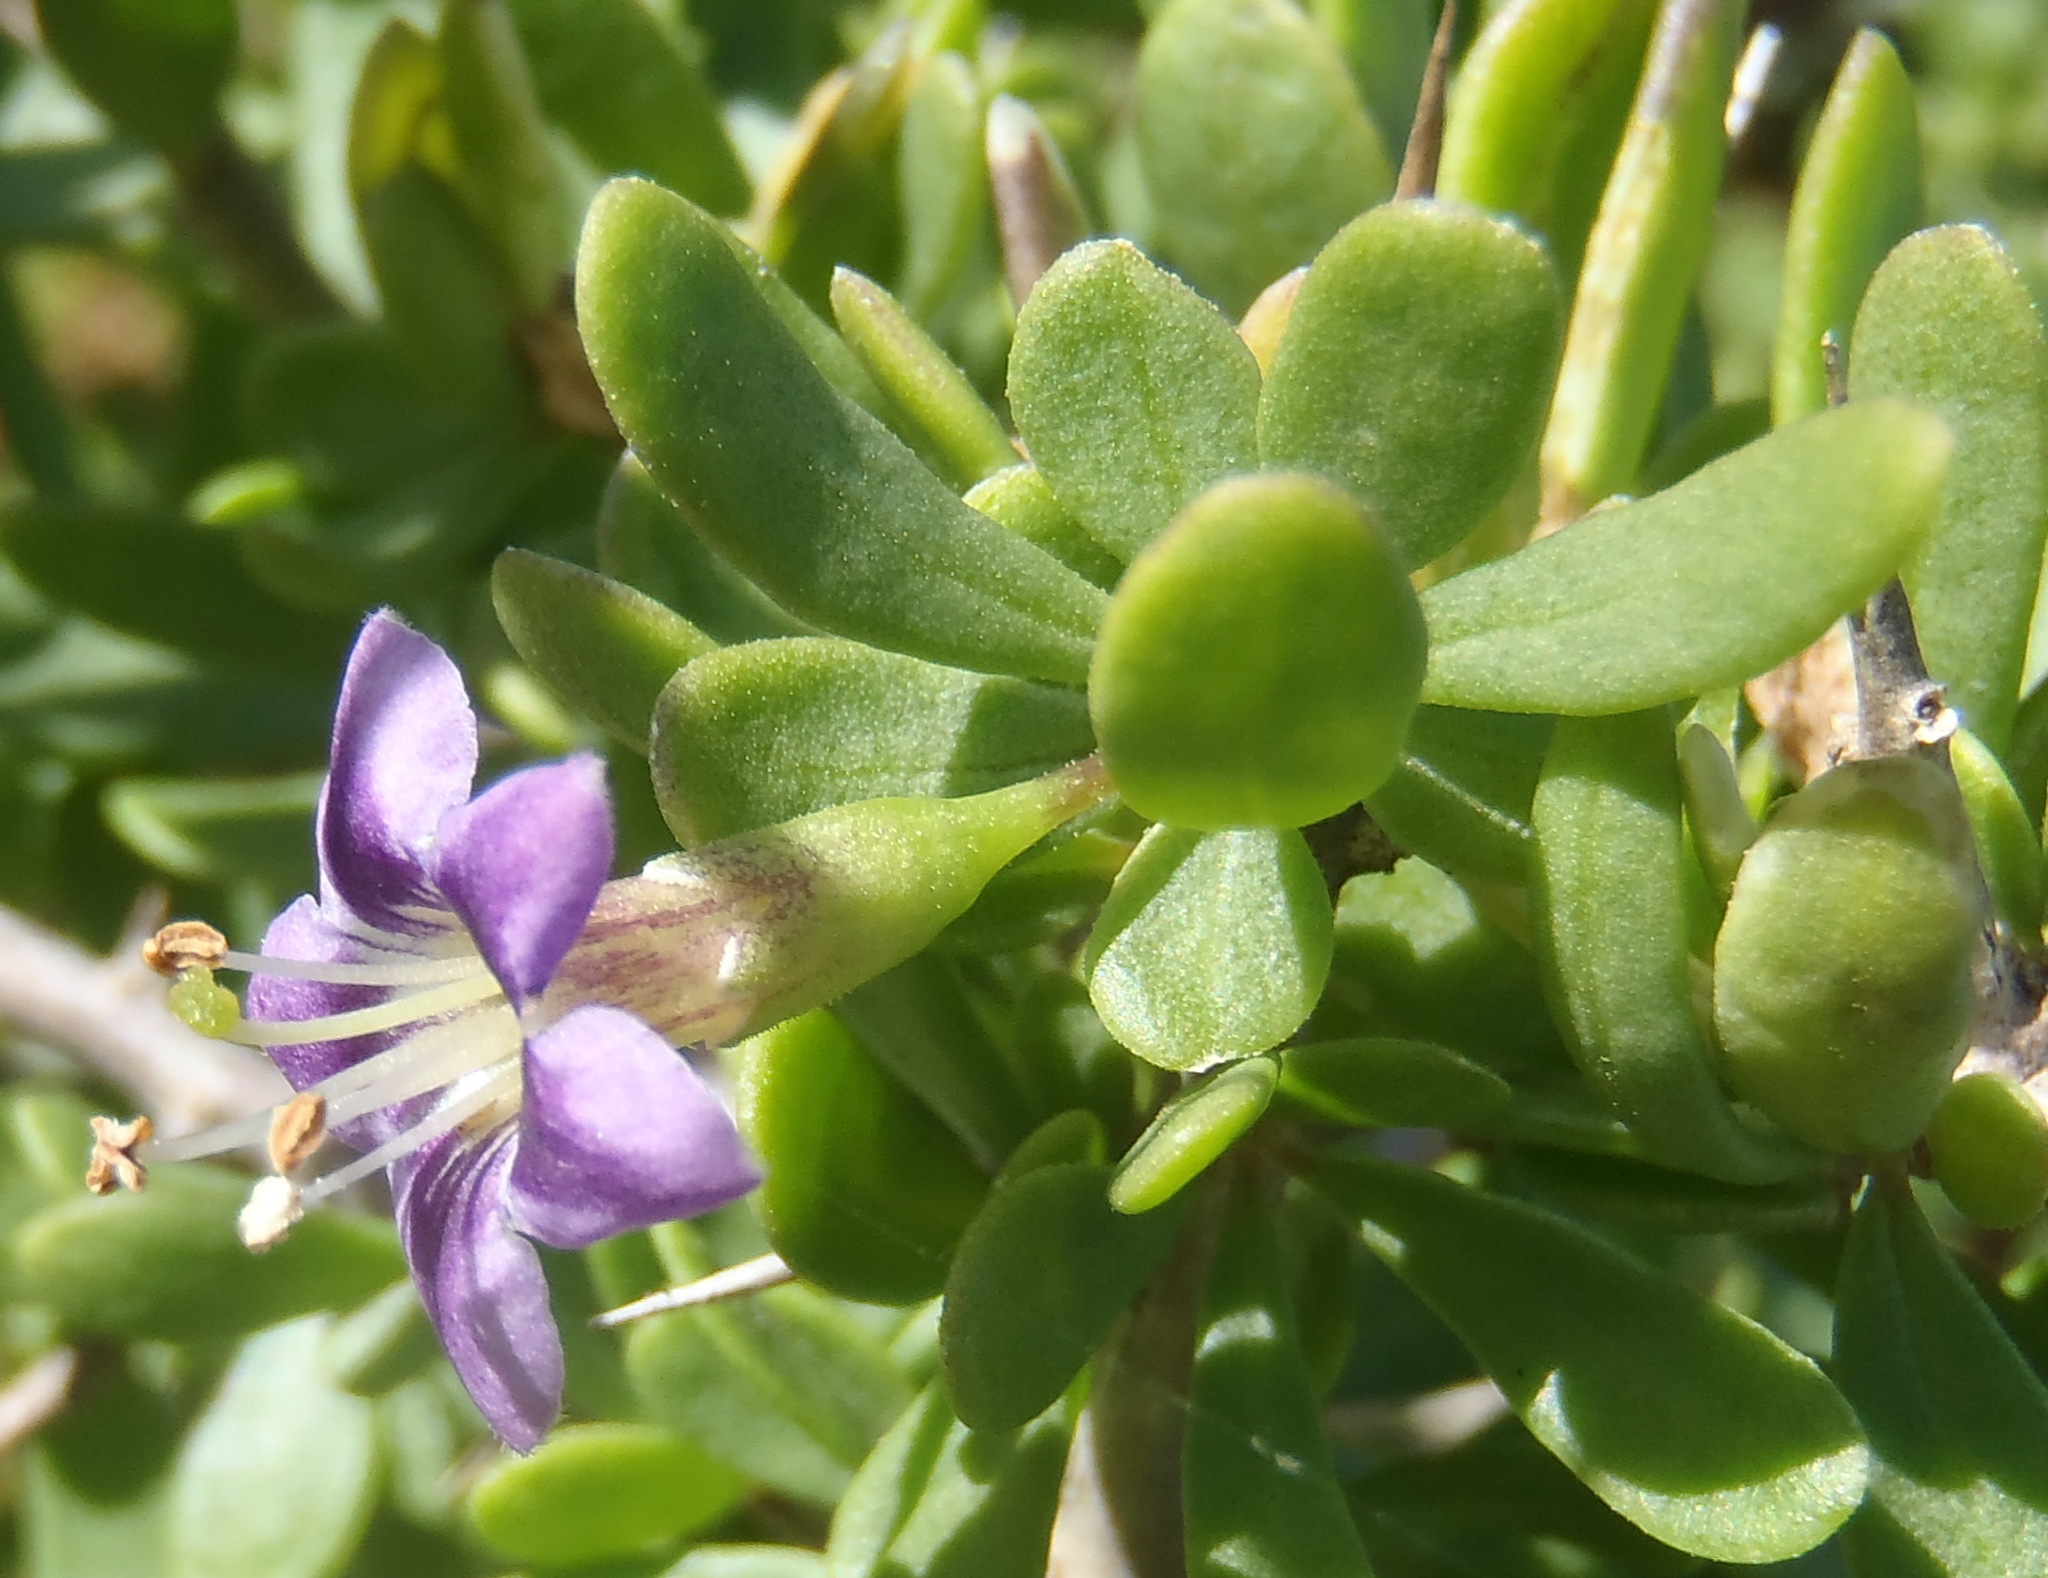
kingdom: Plantae
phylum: Tracheophyta
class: Magnoliopsida
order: Solanales
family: Solanaceae
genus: Lycium
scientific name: Lycium ferocissimum
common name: African boxthorn
